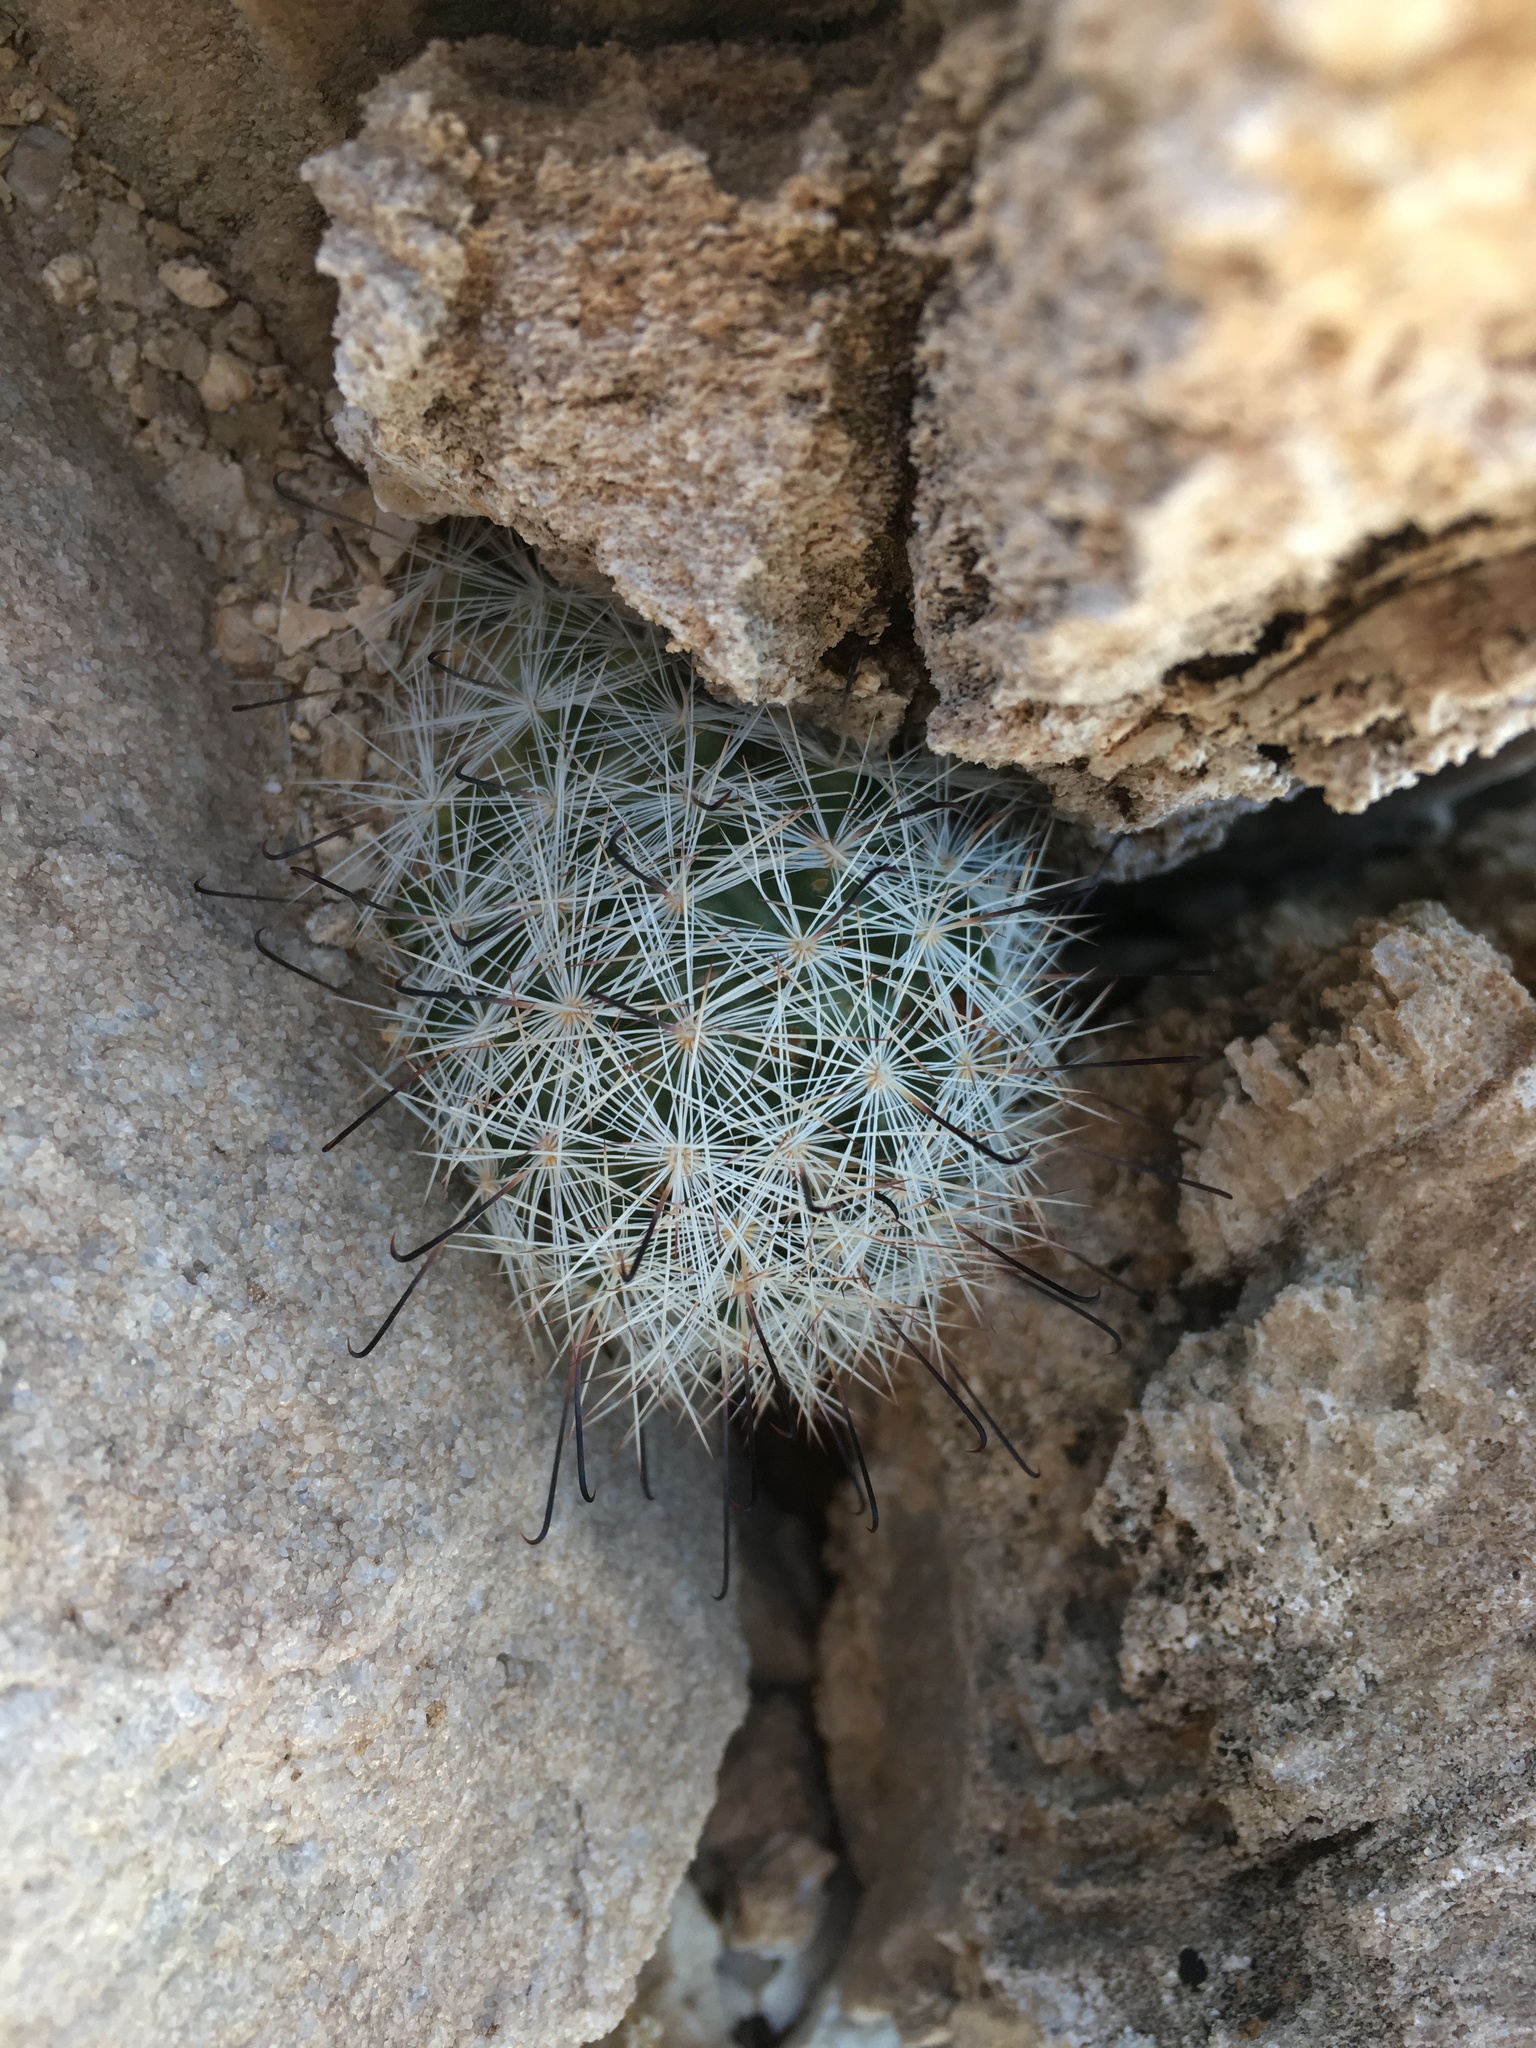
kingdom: Plantae
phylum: Tracheophyta
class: Magnoliopsida
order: Caryophyllales
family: Cactaceae
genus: Cochemiea
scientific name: Cochemiea tetrancistra
